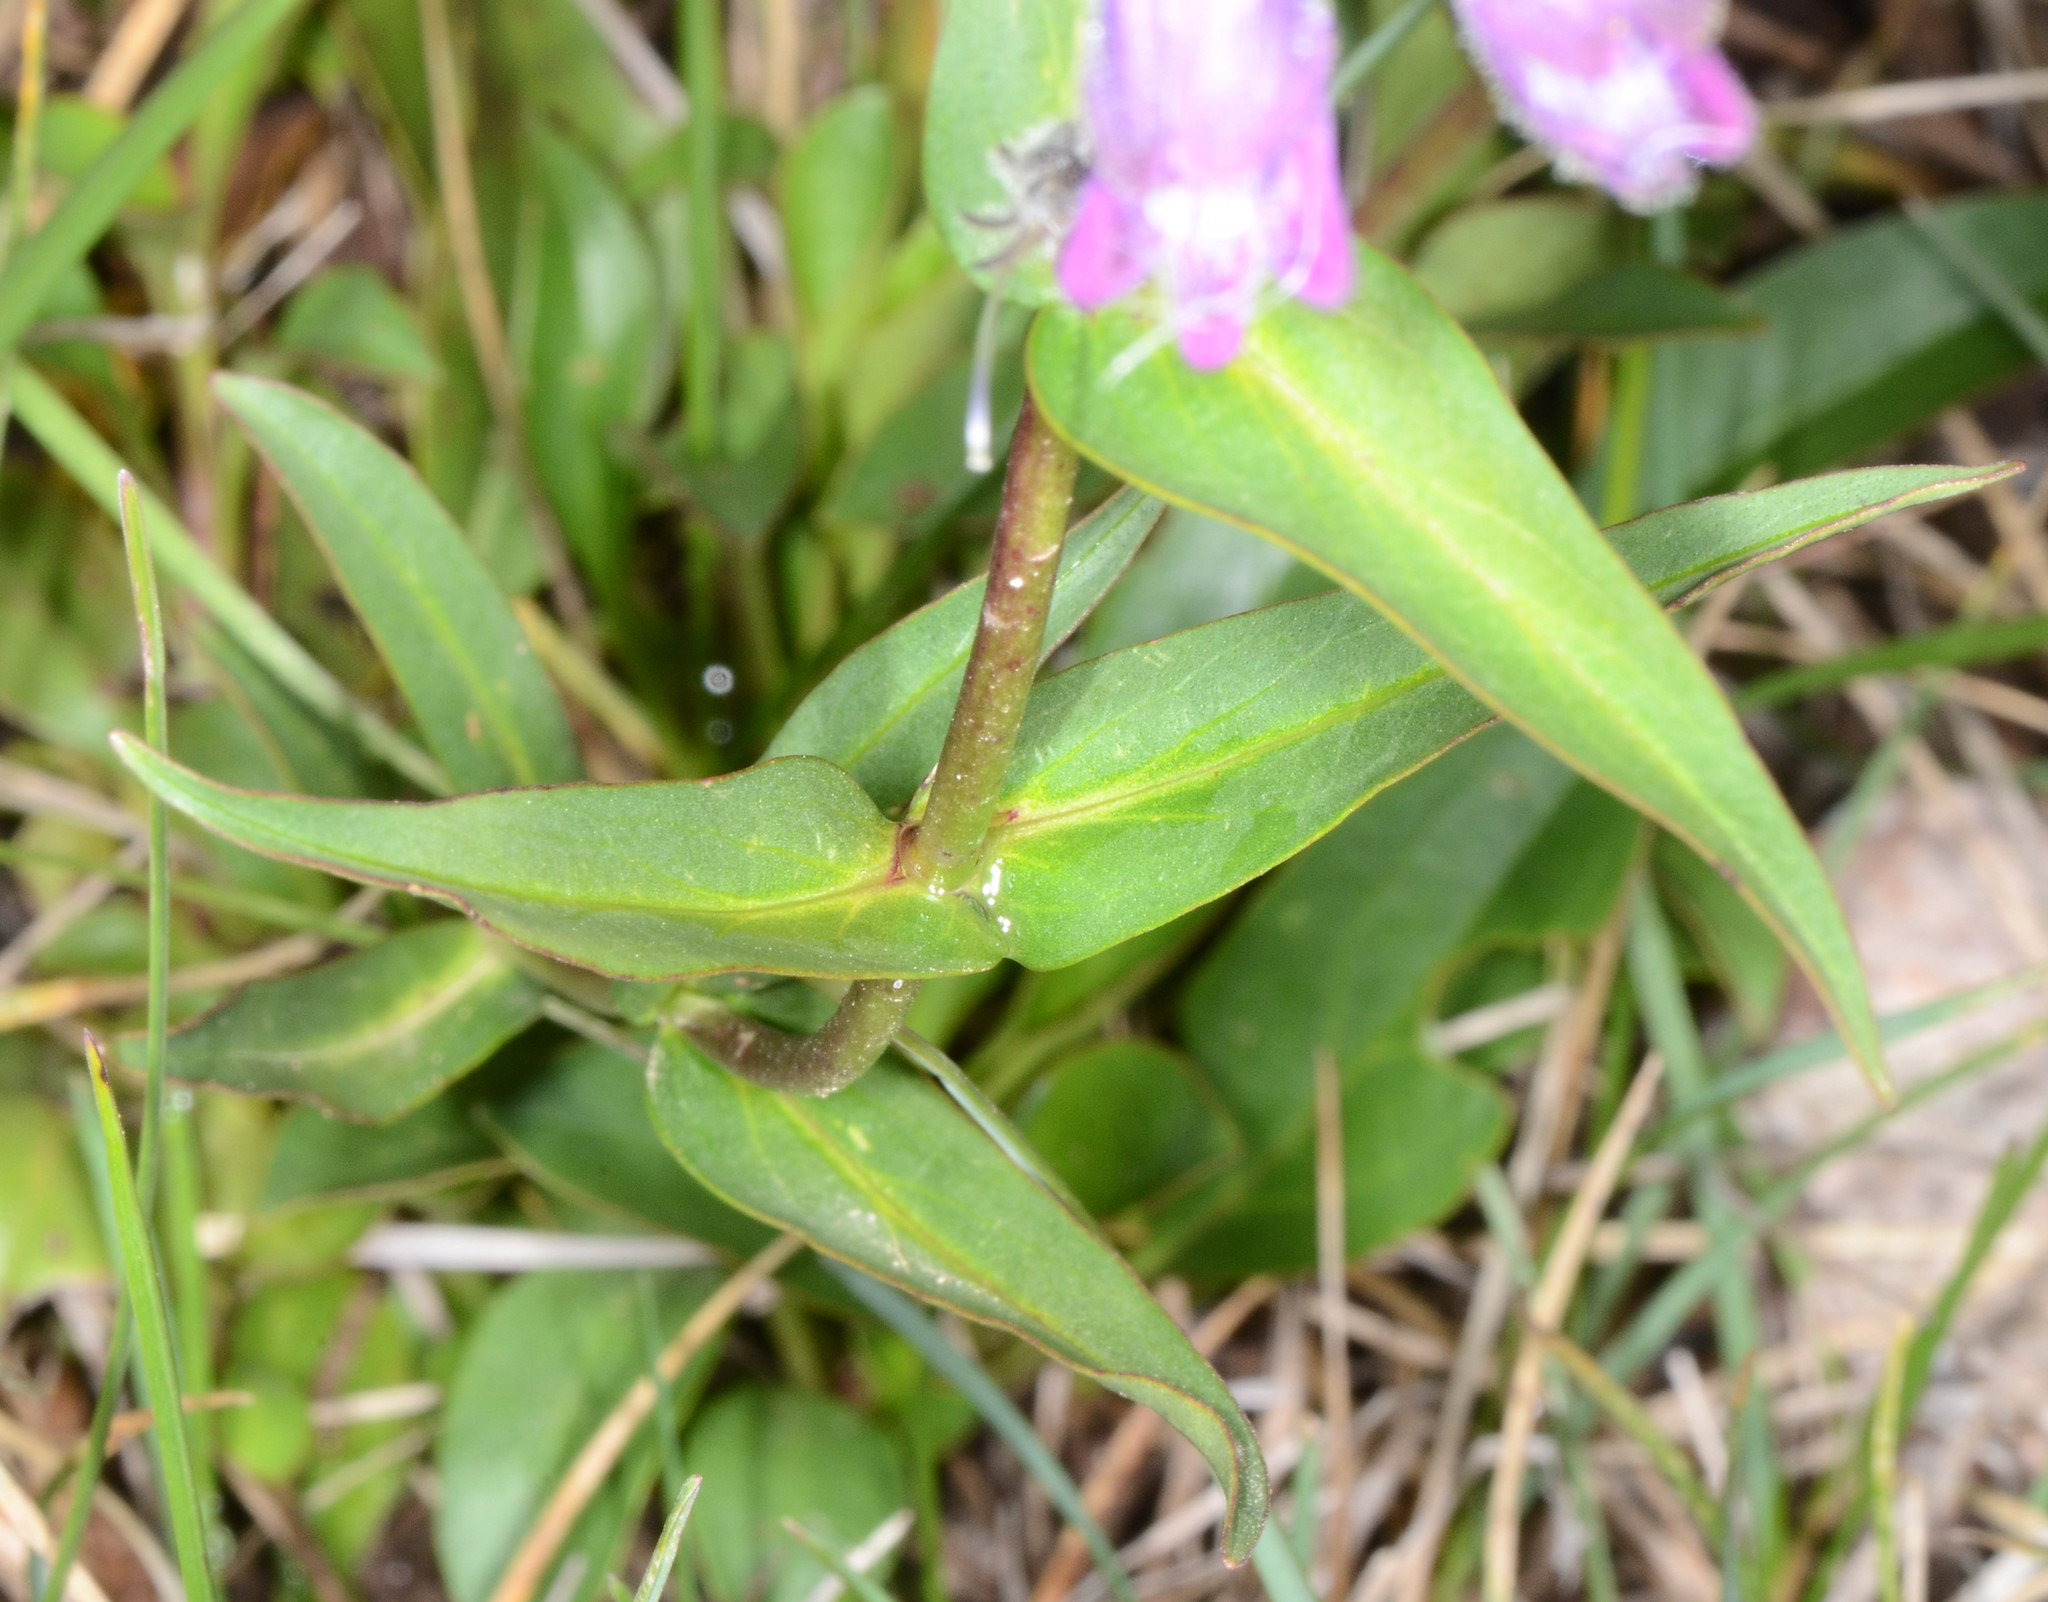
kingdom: Plantae
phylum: Tracheophyta
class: Magnoliopsida
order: Lamiales
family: Plantaginaceae
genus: Penstemon
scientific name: Penstemon whippleanus
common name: Whipple's penstemon
